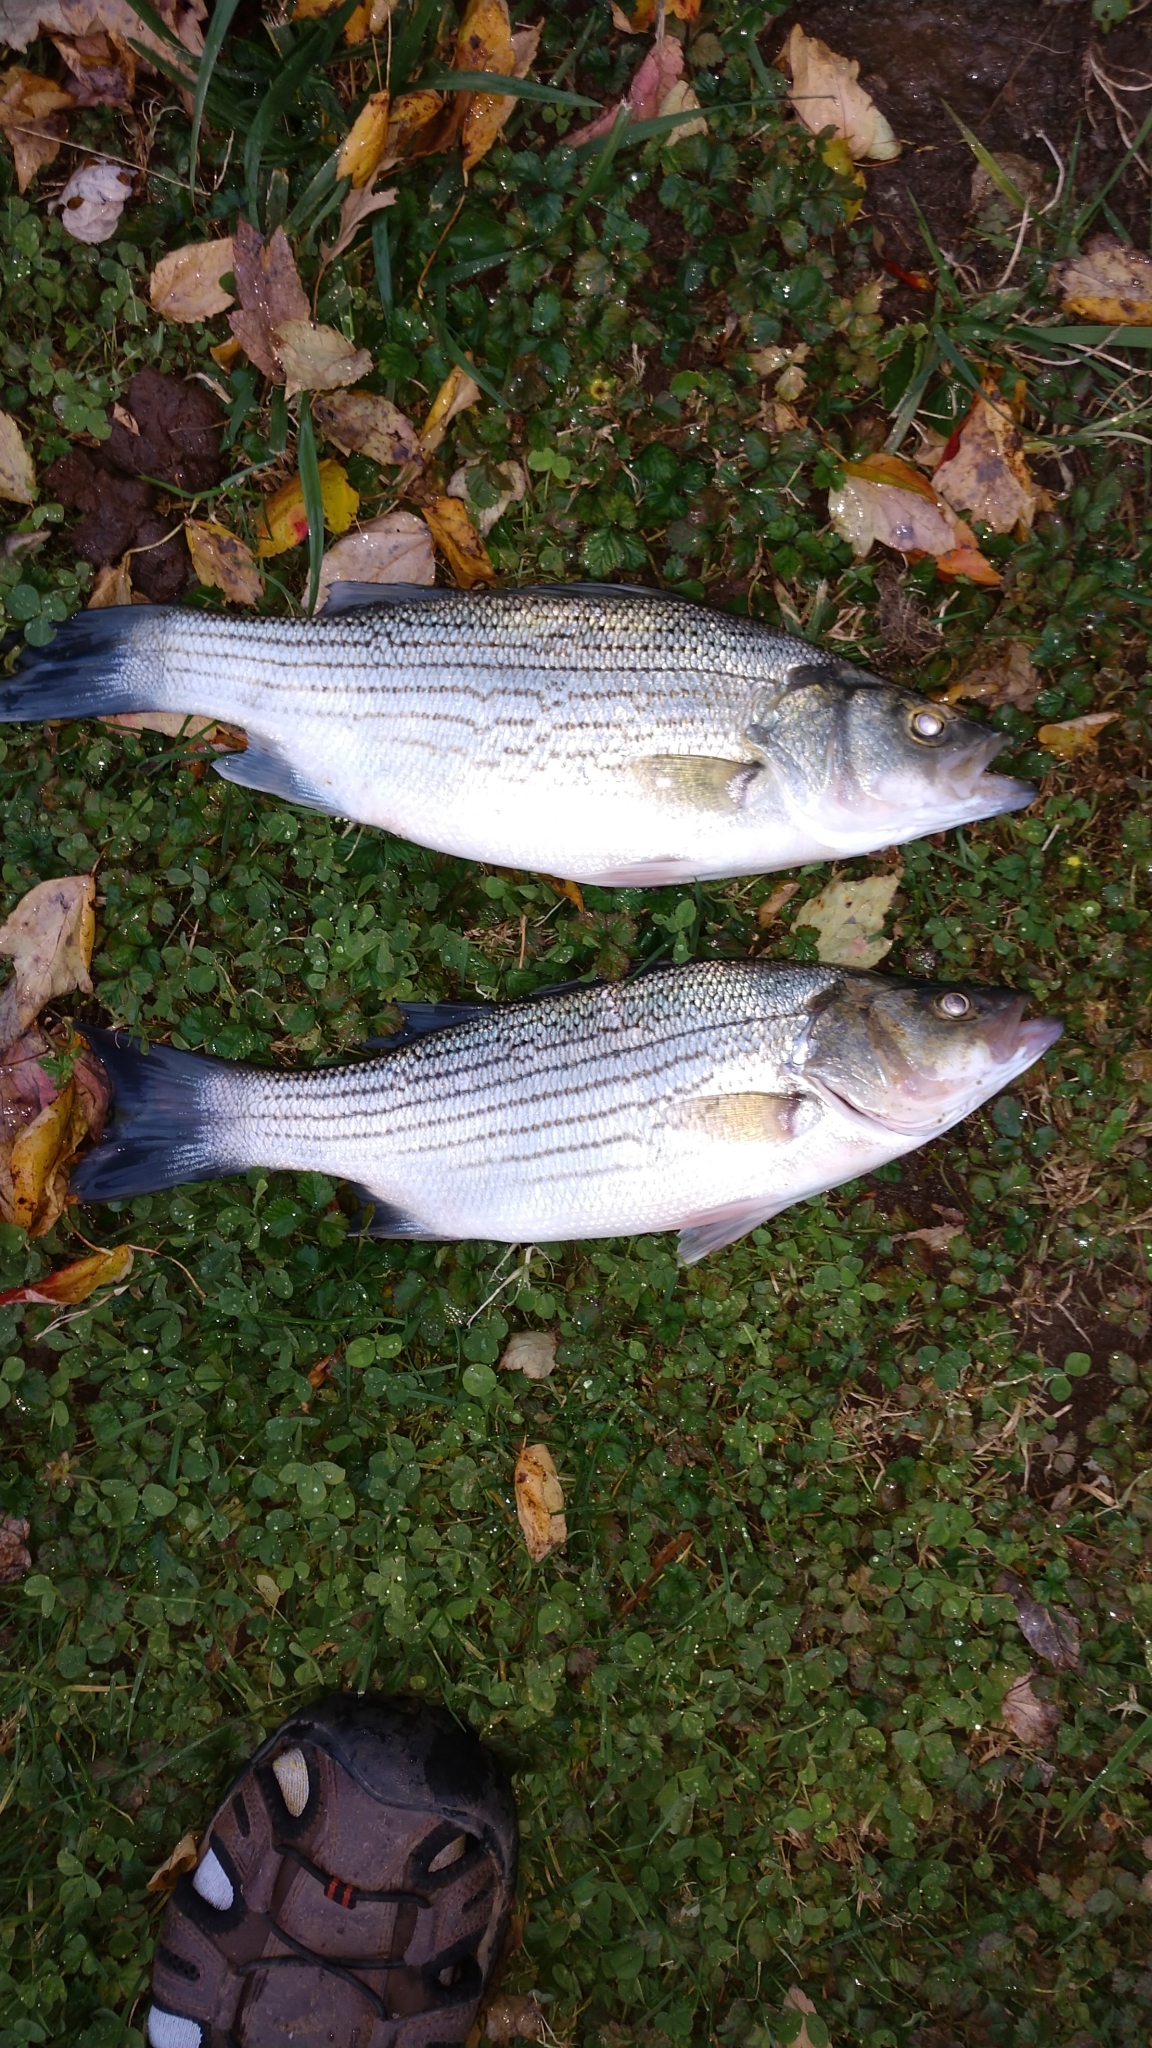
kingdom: Animalia
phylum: Chordata
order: Perciformes
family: Moronidae
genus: Morone
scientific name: Morone
